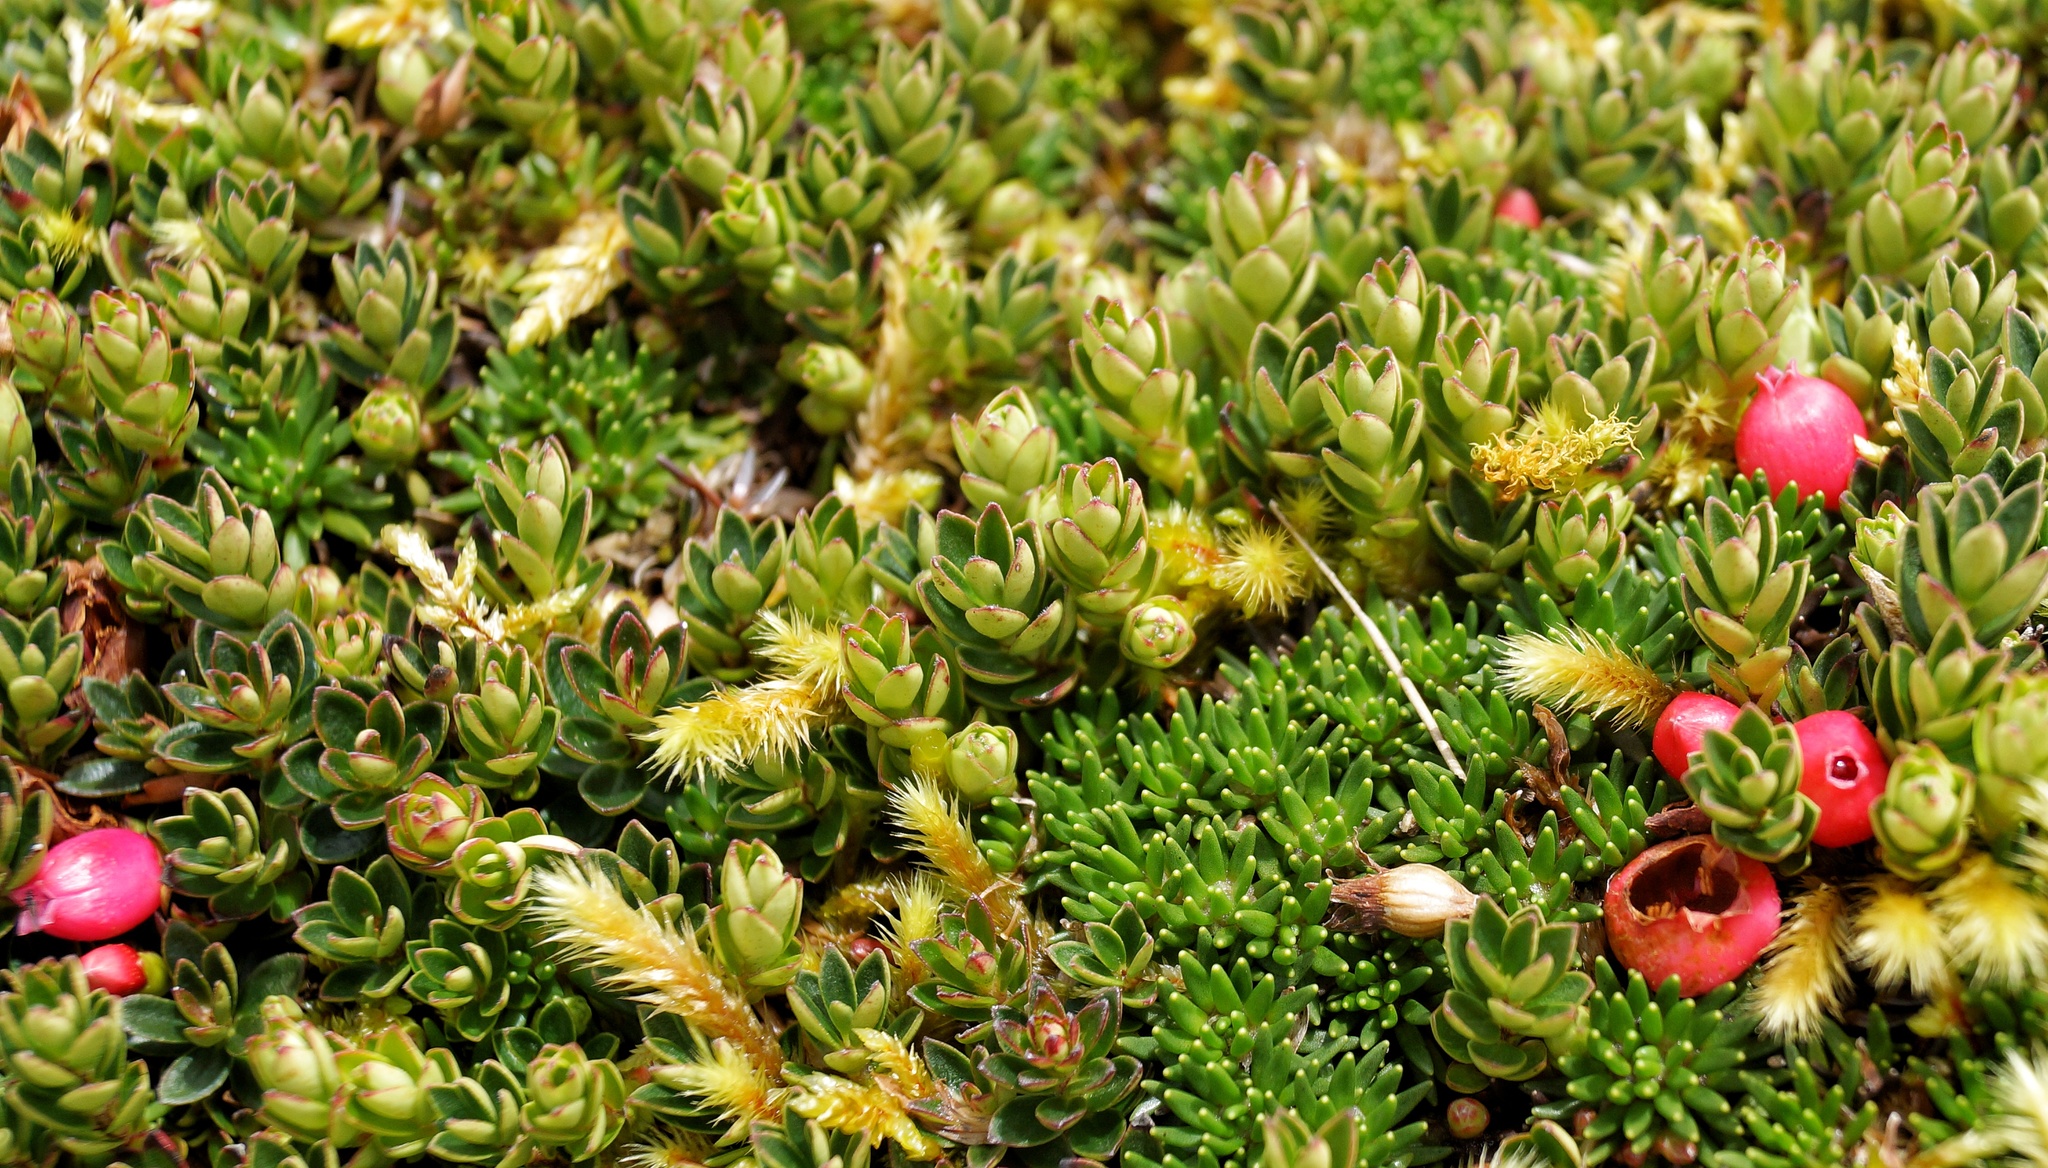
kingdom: Plantae
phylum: Tracheophyta
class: Magnoliopsida
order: Ericales
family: Ericaceae
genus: Disterigma
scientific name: Disterigma empetrifolium
